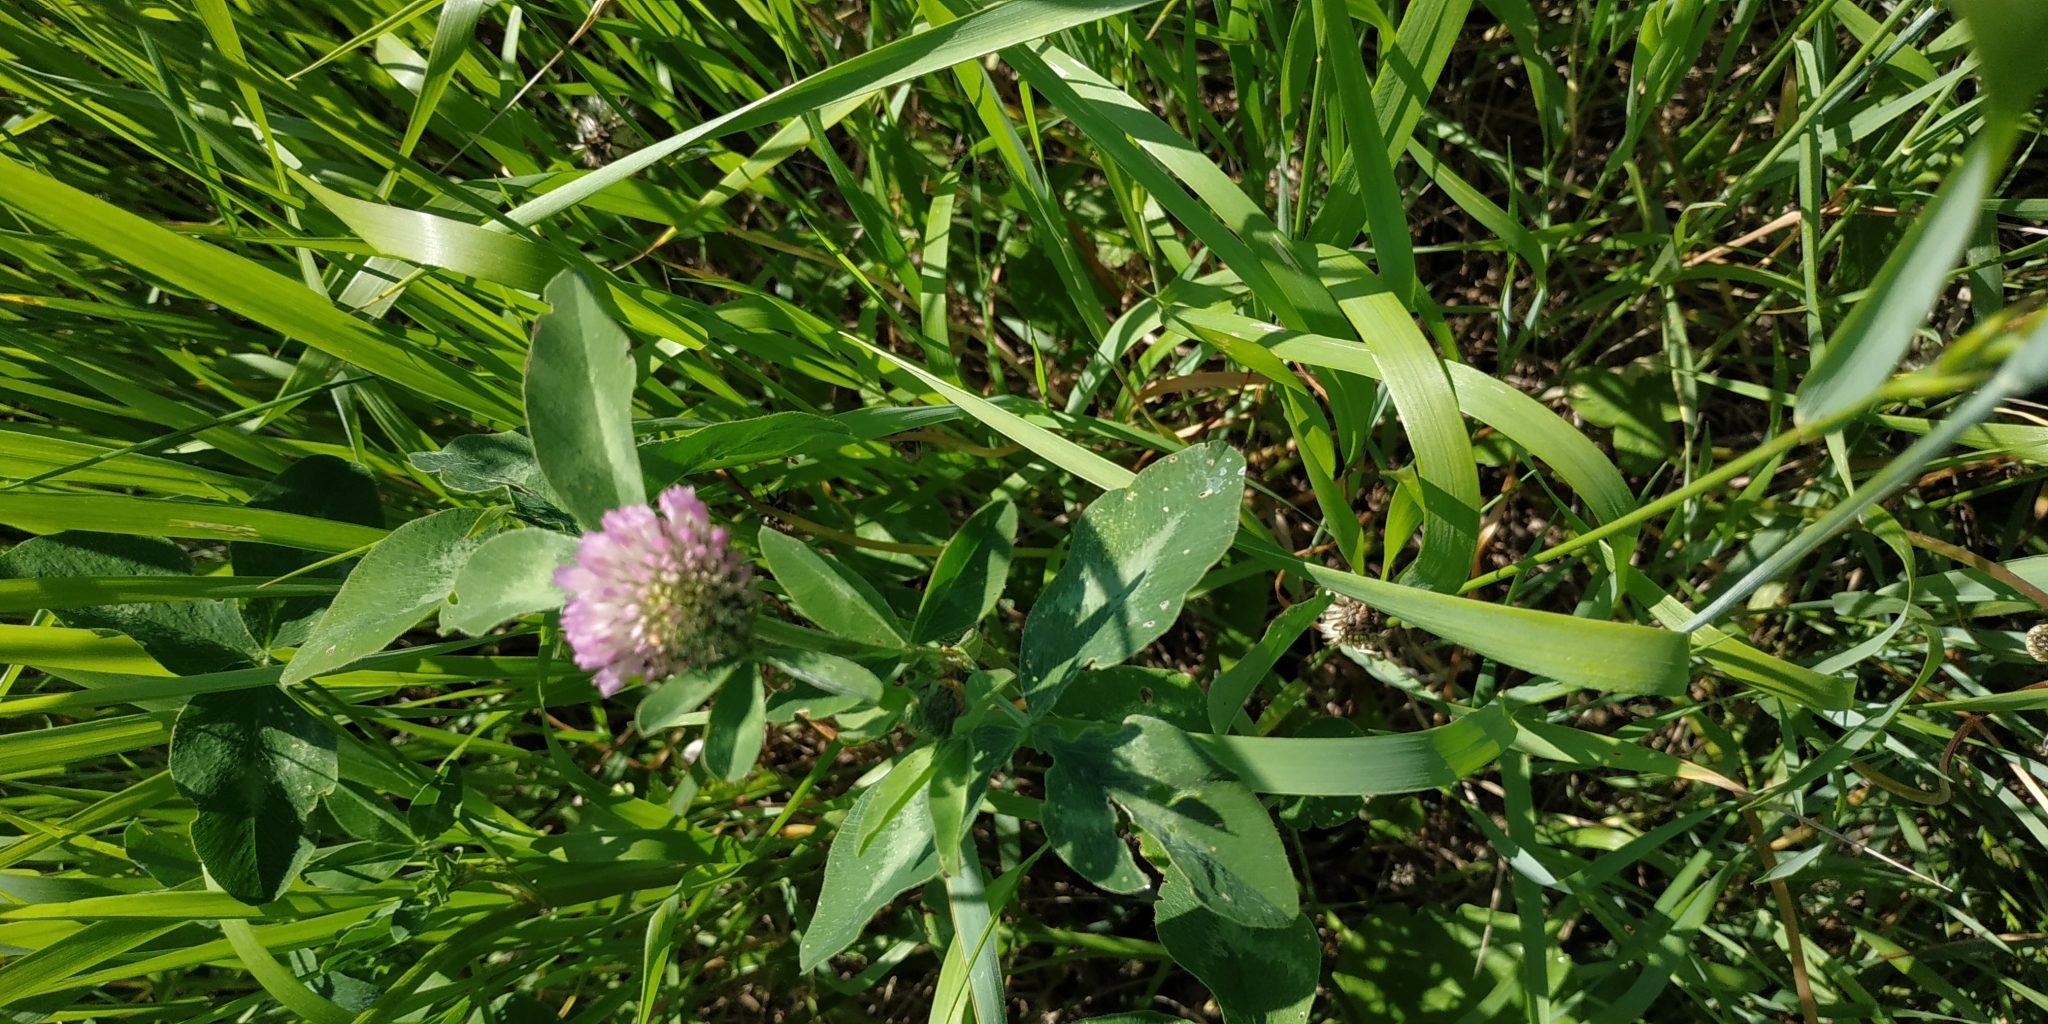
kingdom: Plantae
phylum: Tracheophyta
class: Magnoliopsida
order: Fabales
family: Fabaceae
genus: Trifolium
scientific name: Trifolium pratense
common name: Red clover
